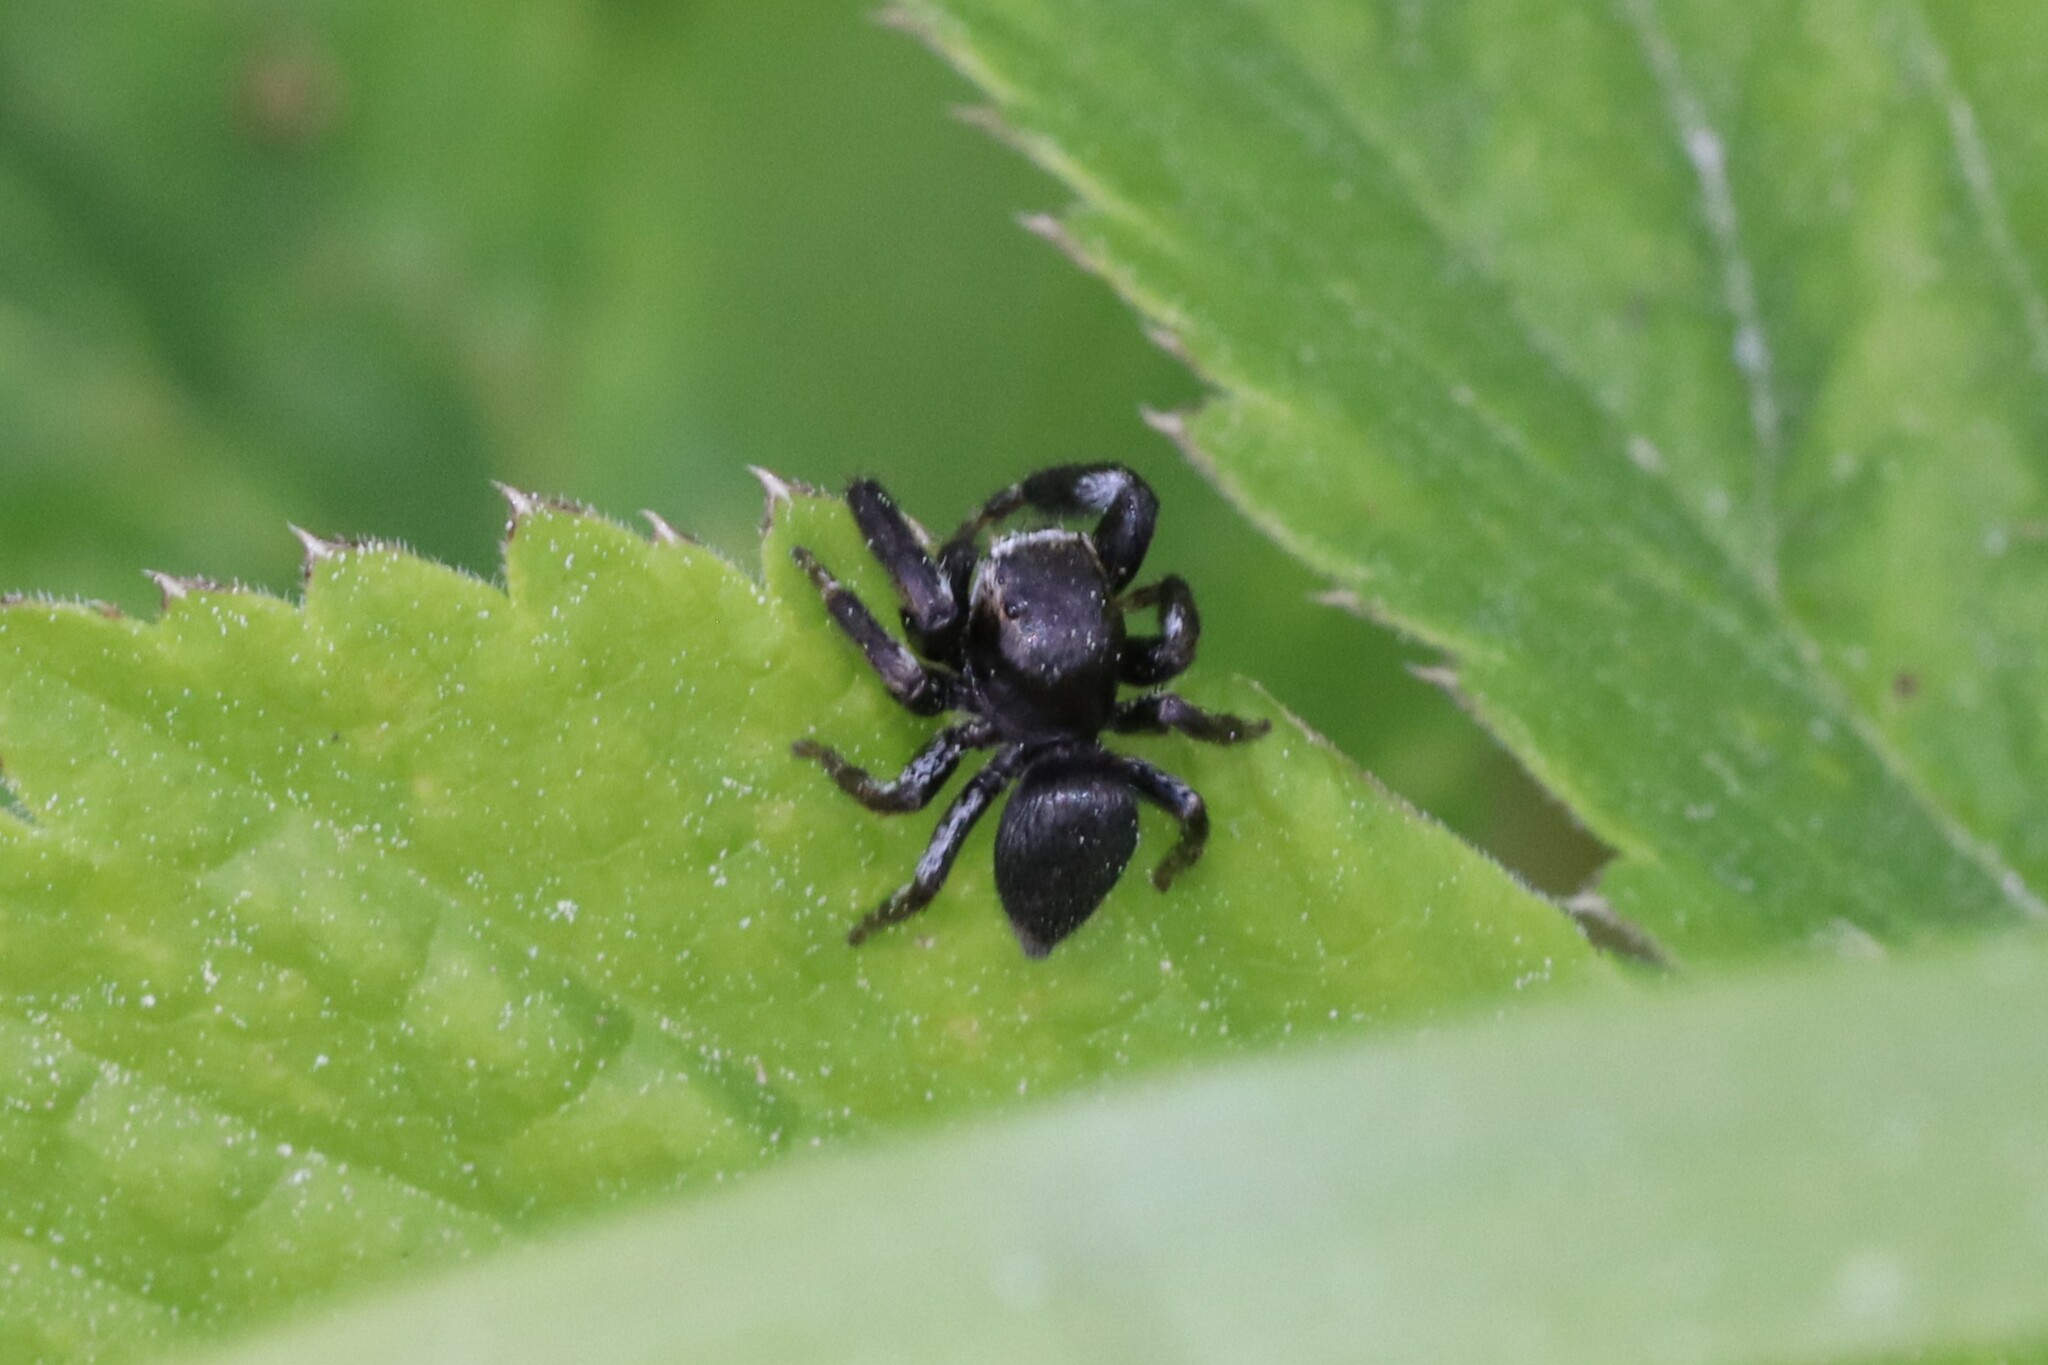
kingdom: Animalia
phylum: Arthropoda
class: Arachnida
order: Araneae
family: Salticidae
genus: Evarcha
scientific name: Evarcha arcuata
